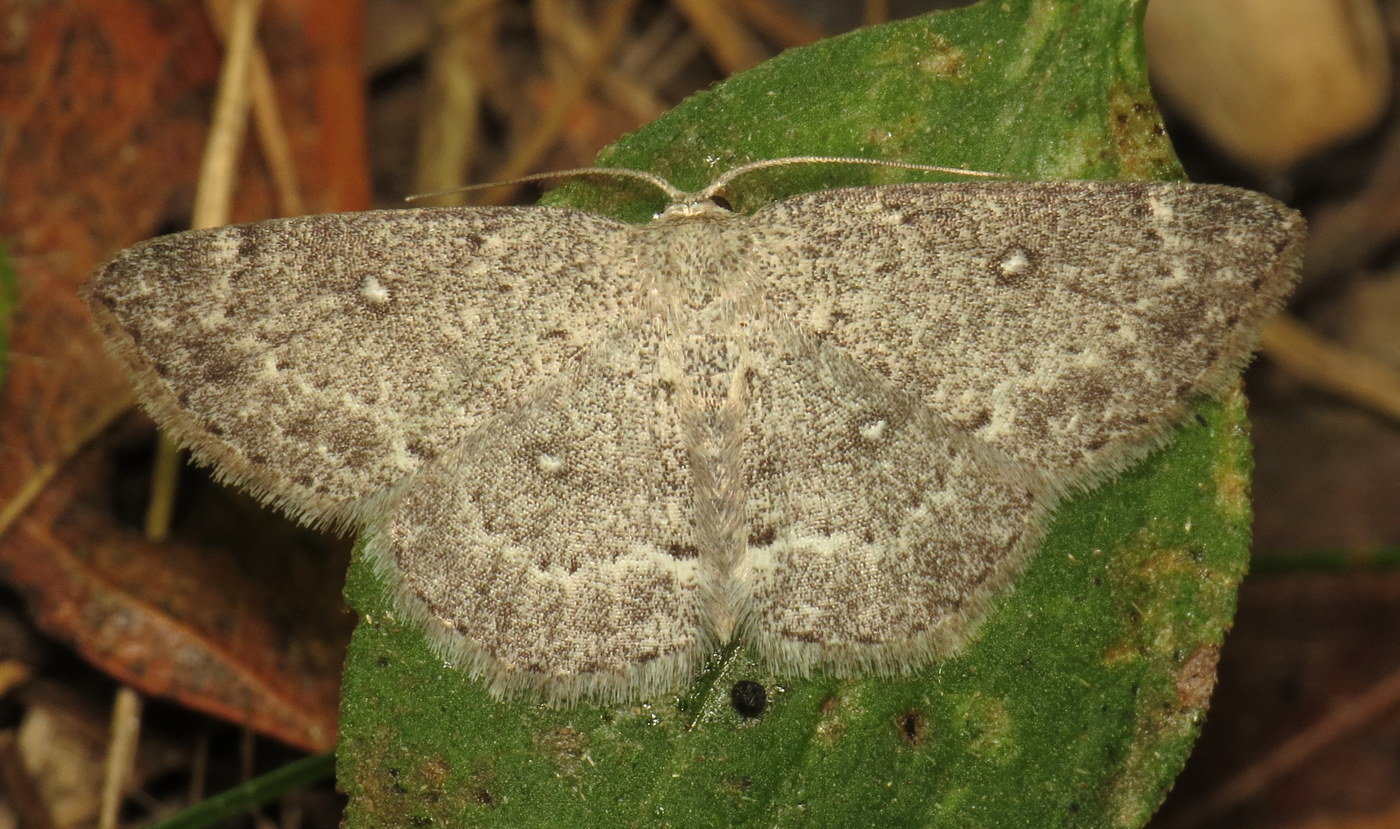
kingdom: Animalia
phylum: Arthropoda
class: Insecta
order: Lepidoptera
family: Geometridae
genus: Cyclophora
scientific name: Cyclophora pendulinaria
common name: Sweet fern geometer
